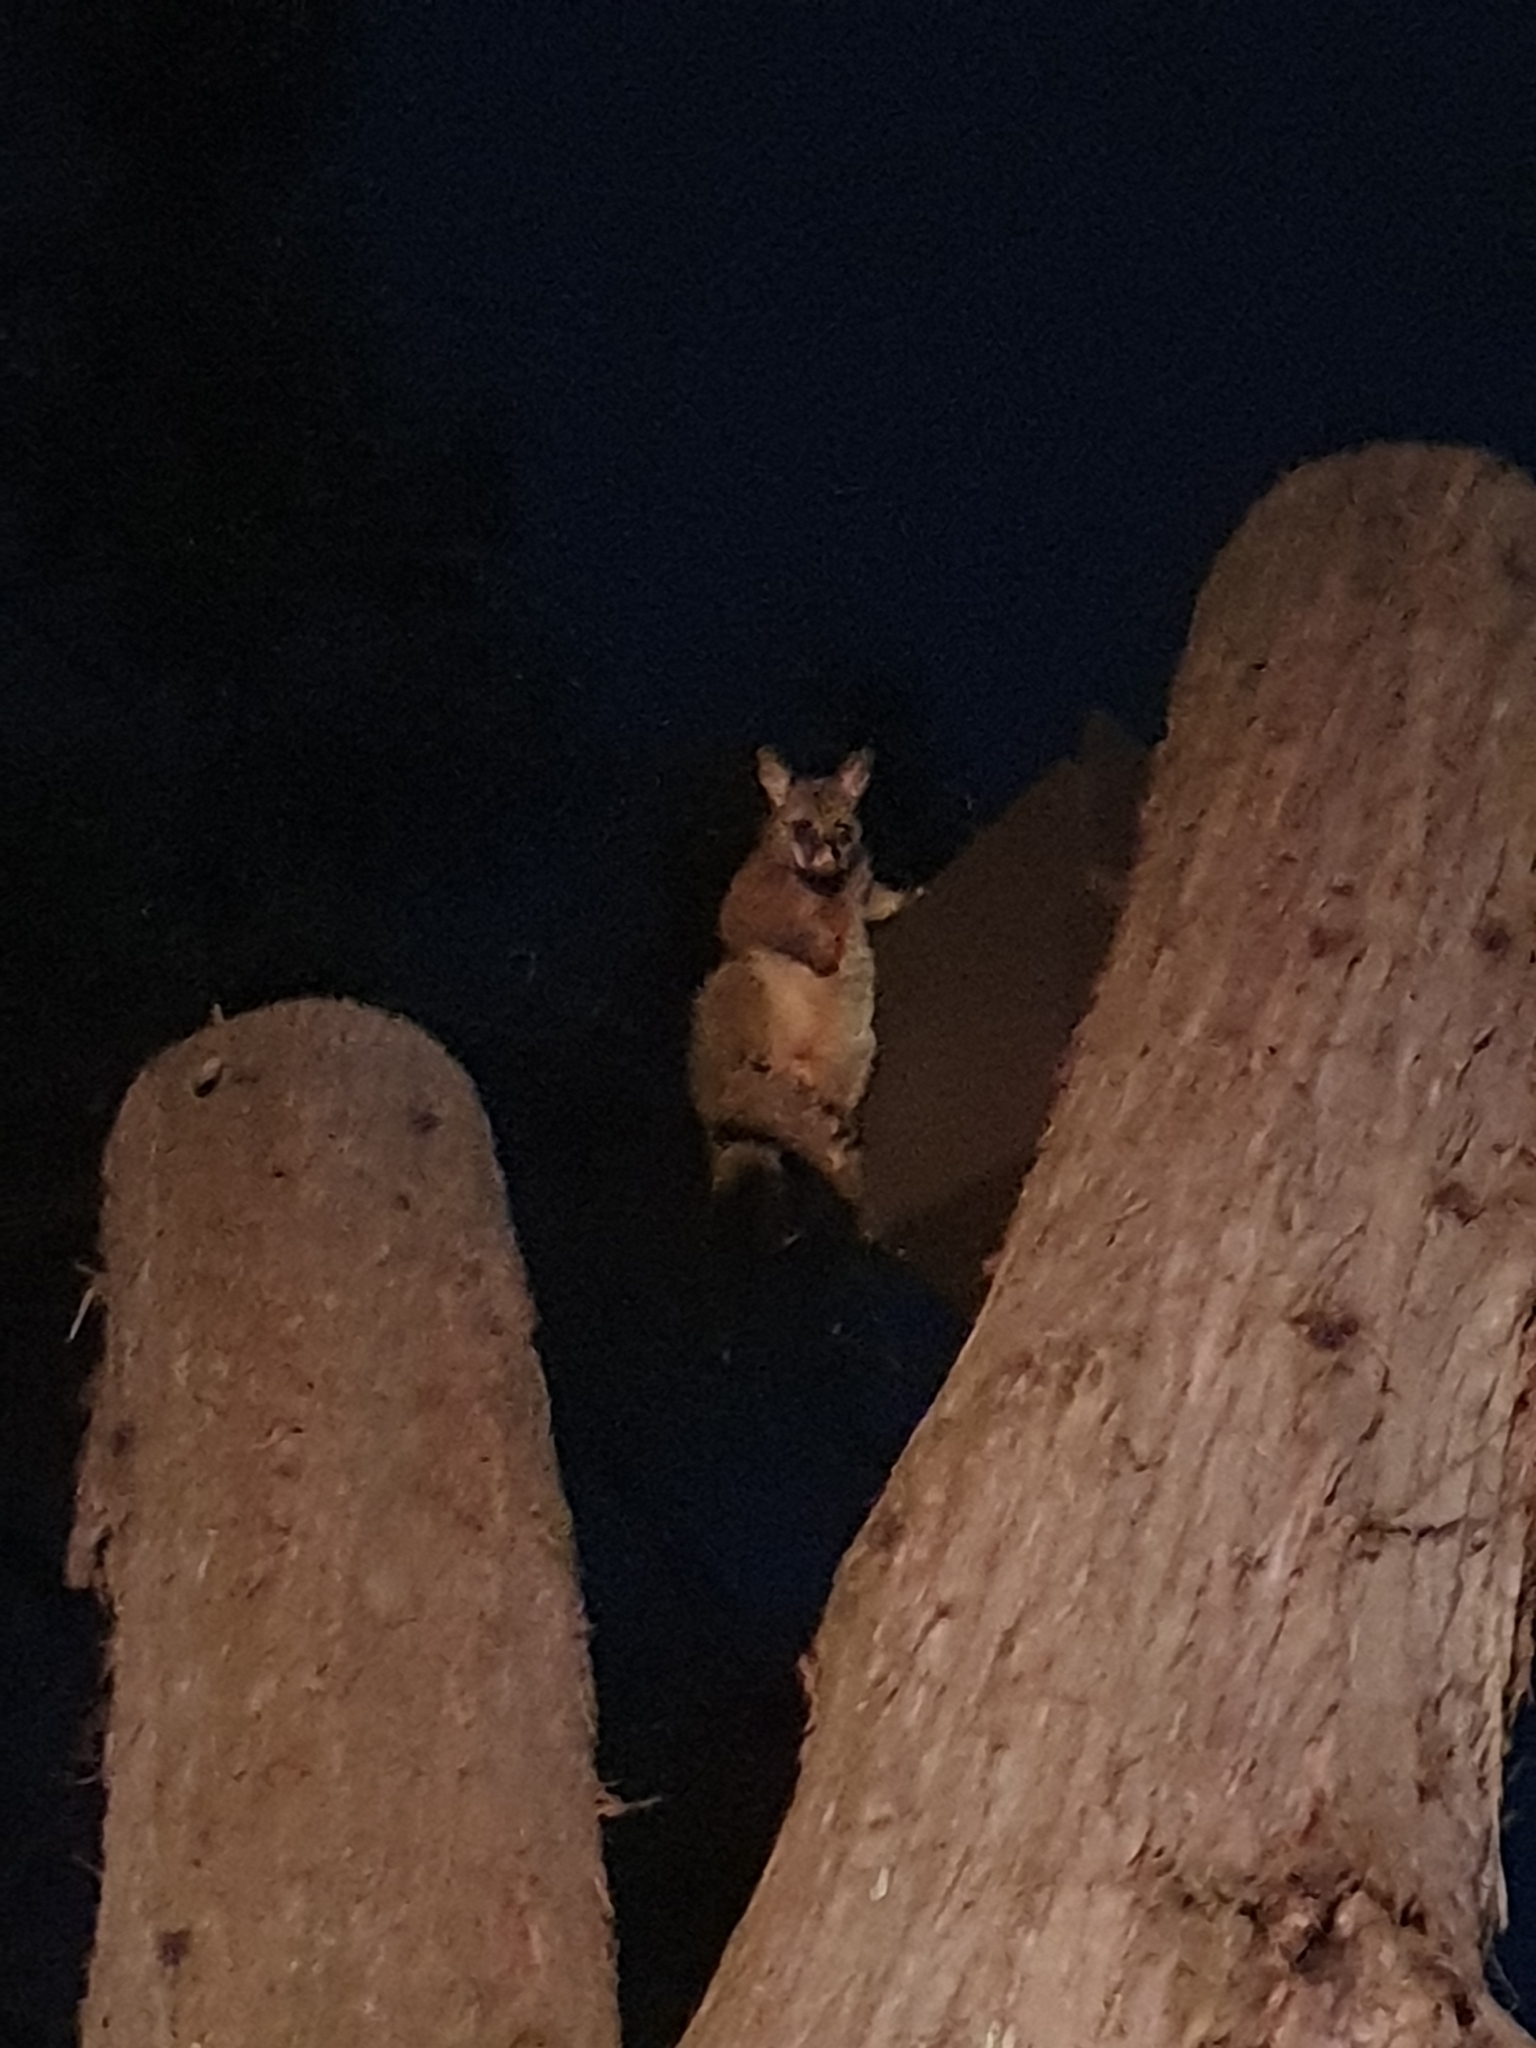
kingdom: Animalia
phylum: Chordata
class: Mammalia
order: Diprotodontia
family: Phalangeridae
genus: Trichosurus
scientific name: Trichosurus vulpecula
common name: Common brushtail
